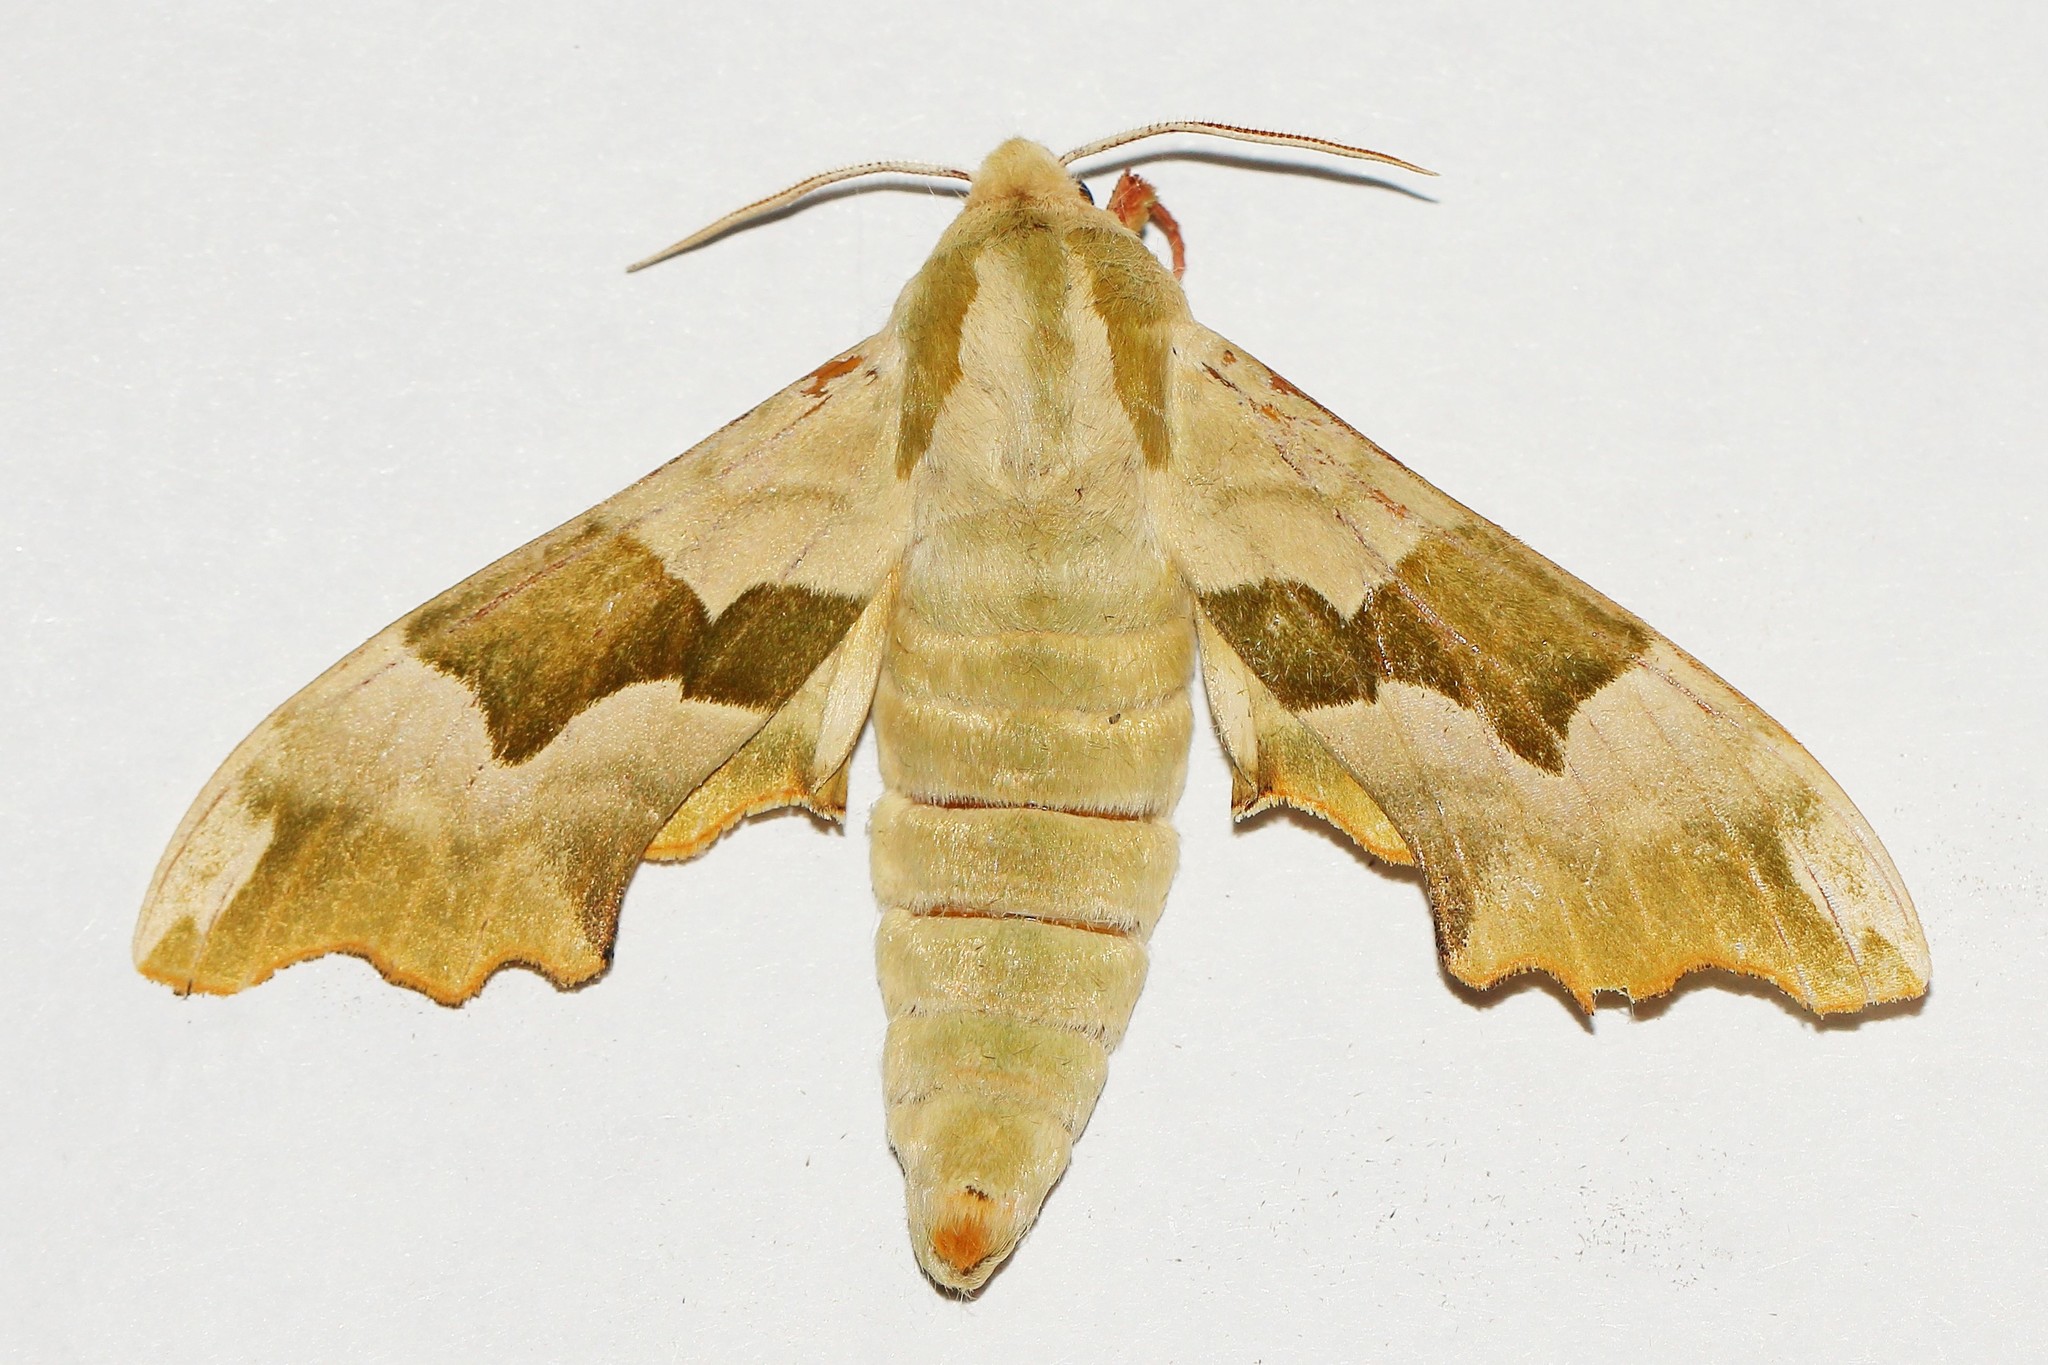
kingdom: Animalia
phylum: Arthropoda
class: Insecta
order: Lepidoptera
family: Sphingidae
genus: Mimas
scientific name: Mimas tiliae
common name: Lime hawk-moth
